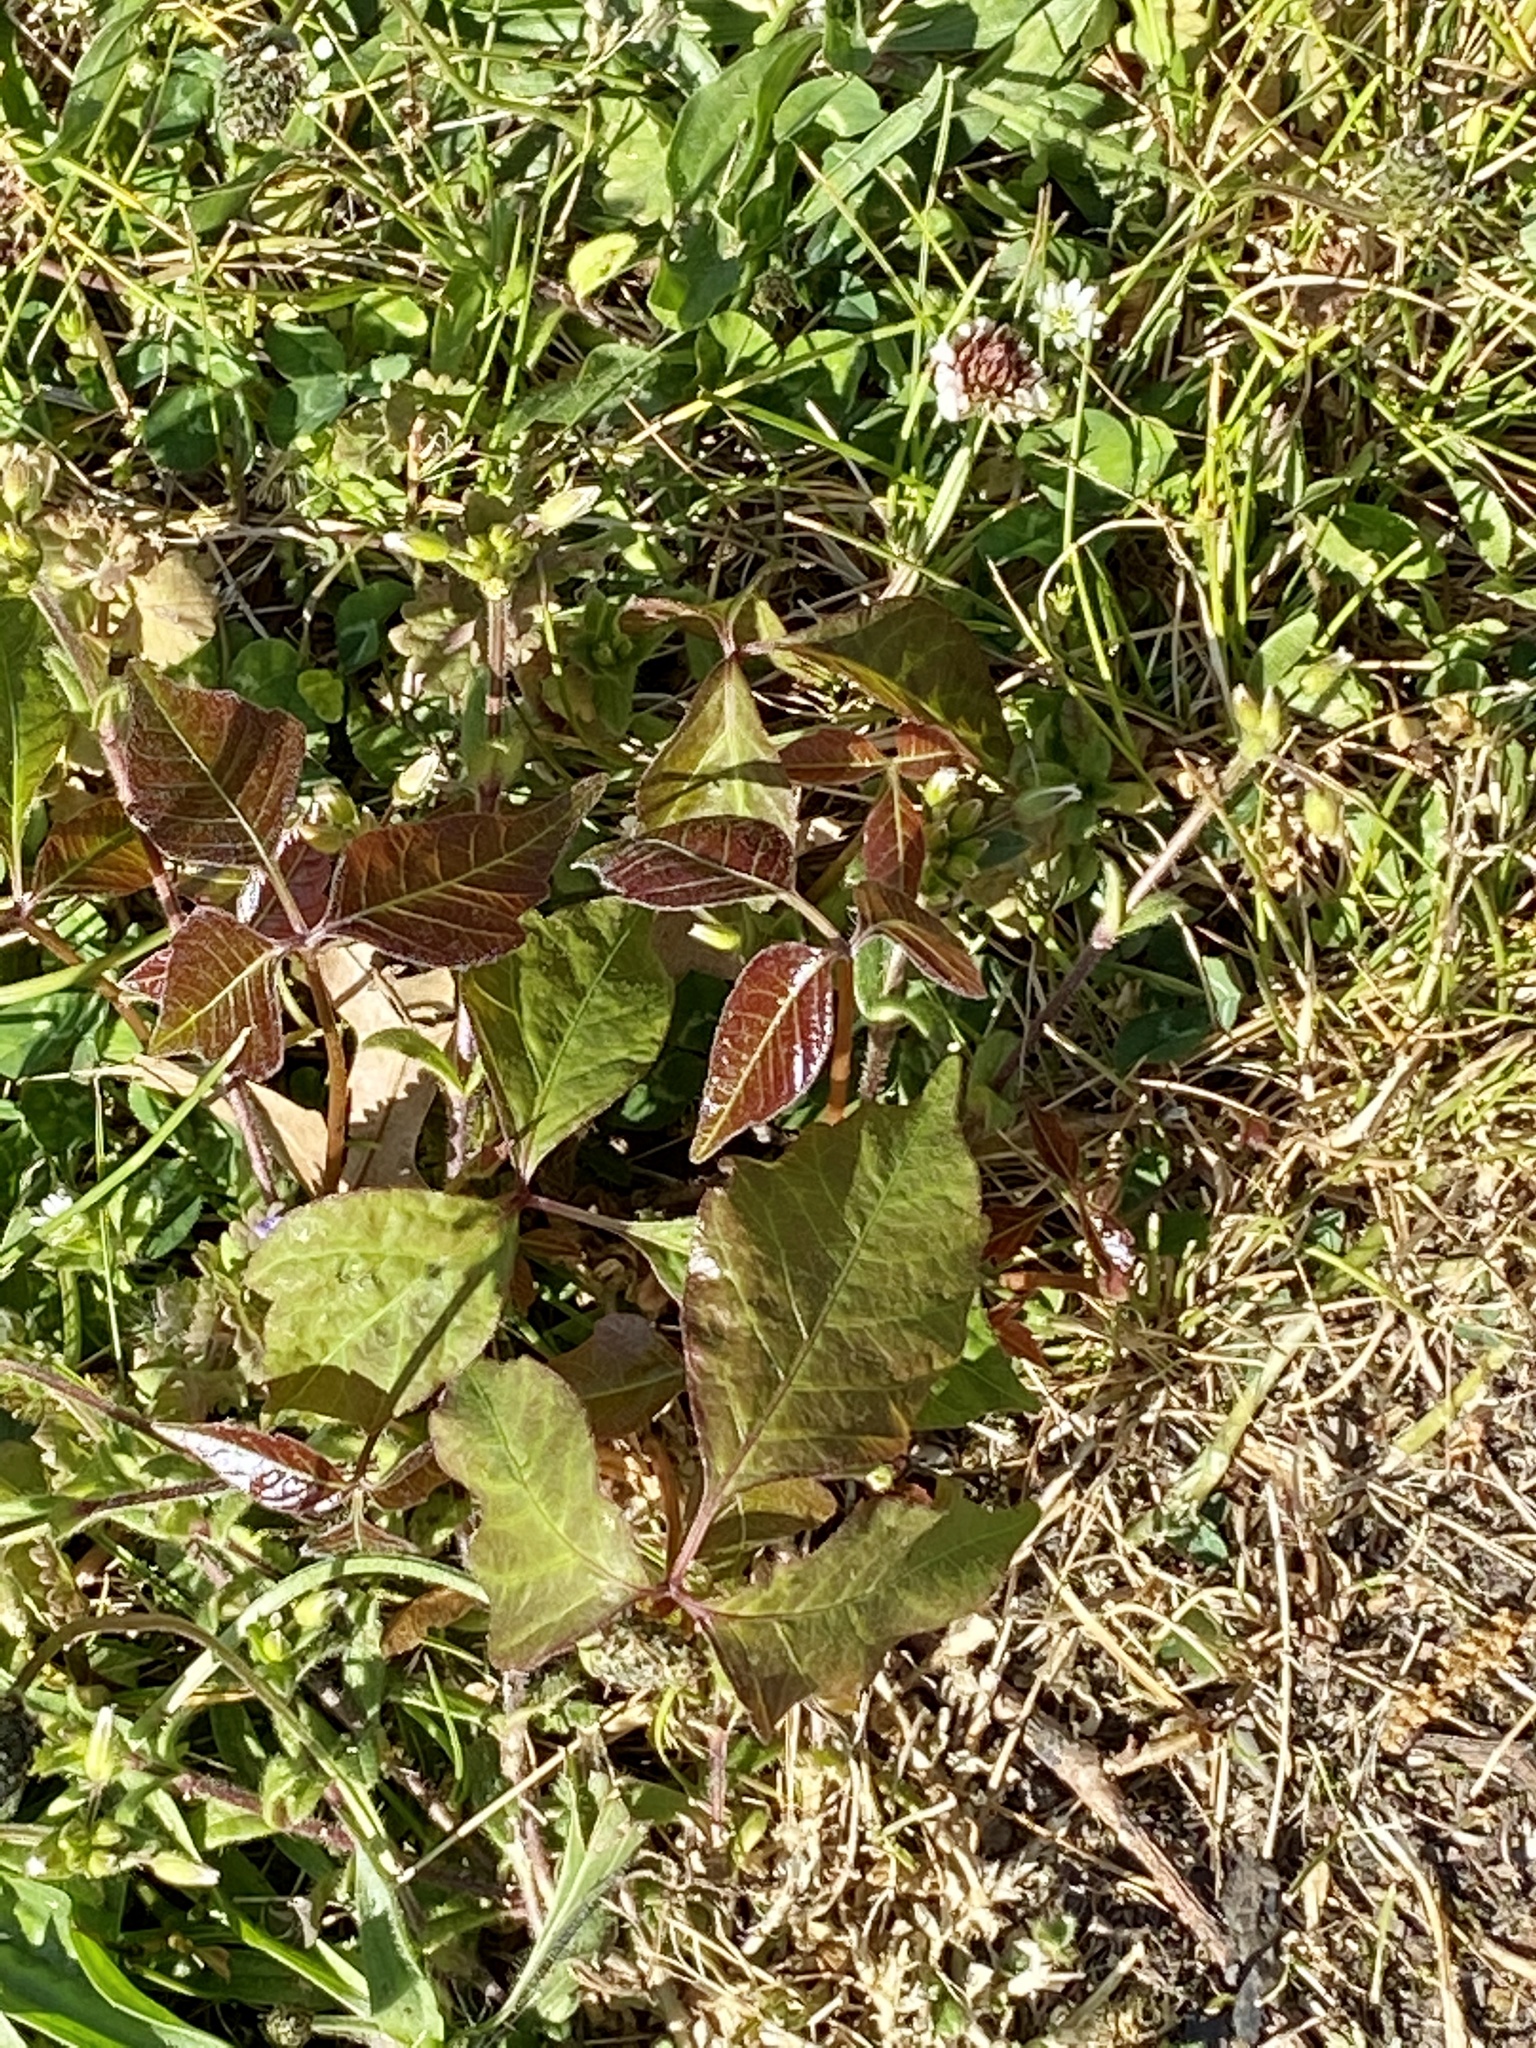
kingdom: Plantae
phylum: Tracheophyta
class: Magnoliopsida
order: Sapindales
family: Anacardiaceae
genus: Toxicodendron
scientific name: Toxicodendron radicans
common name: Poison ivy
